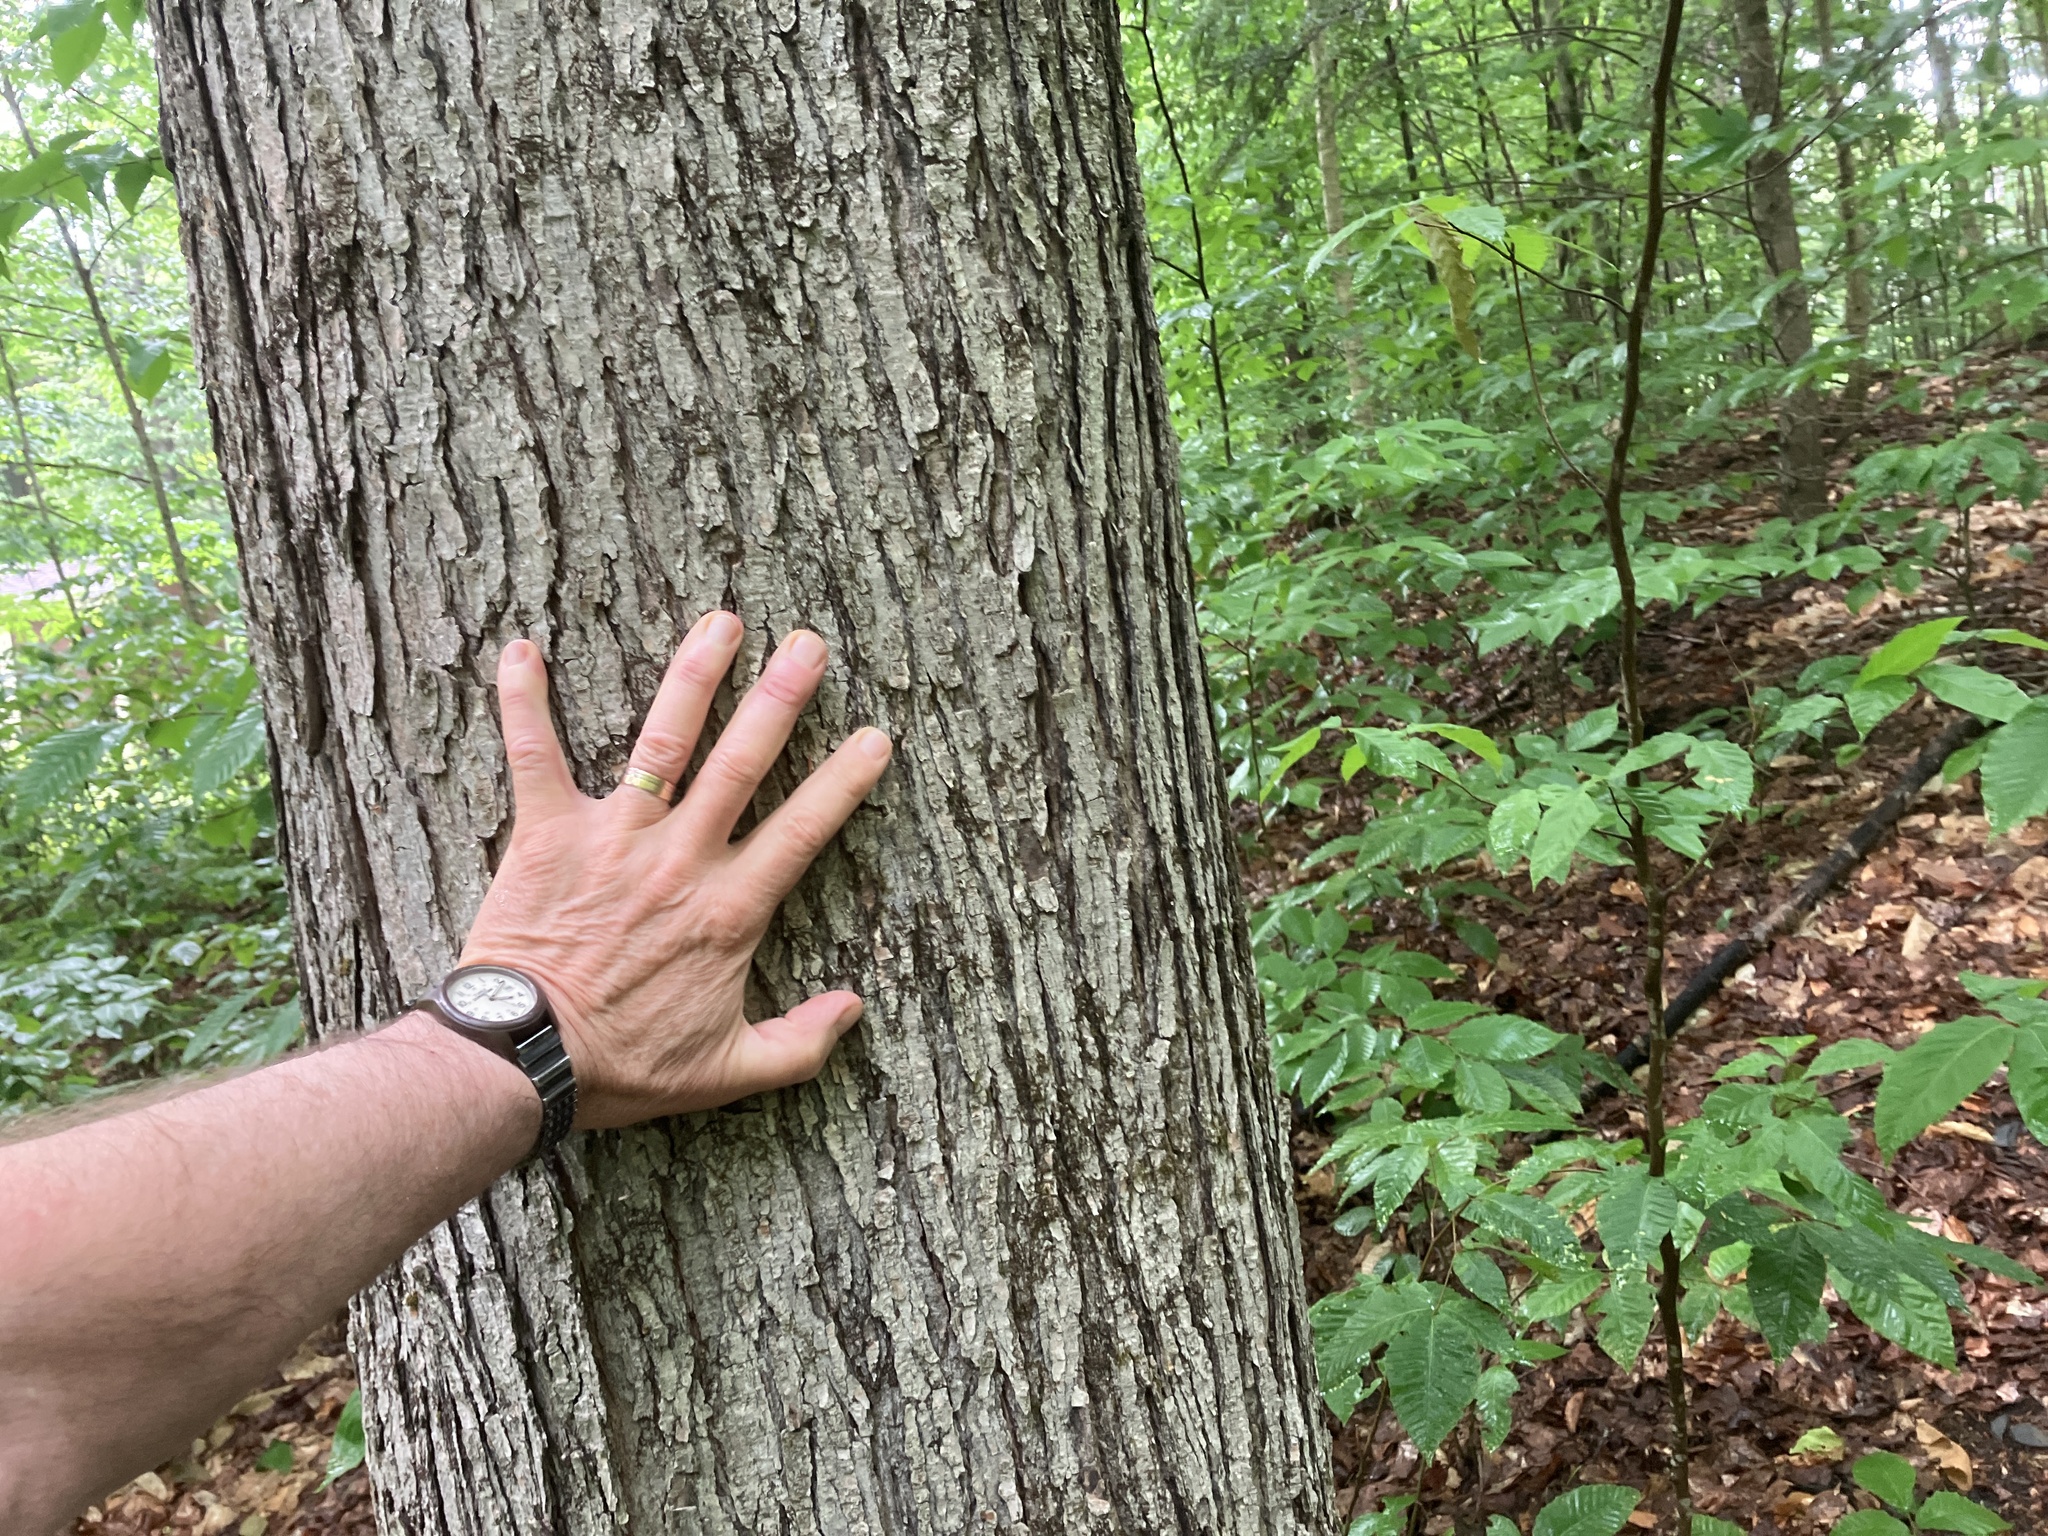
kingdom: Plantae
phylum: Tracheophyta
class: Magnoliopsida
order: Sapindales
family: Sapindaceae
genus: Acer
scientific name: Acer rubrum
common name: Red maple
